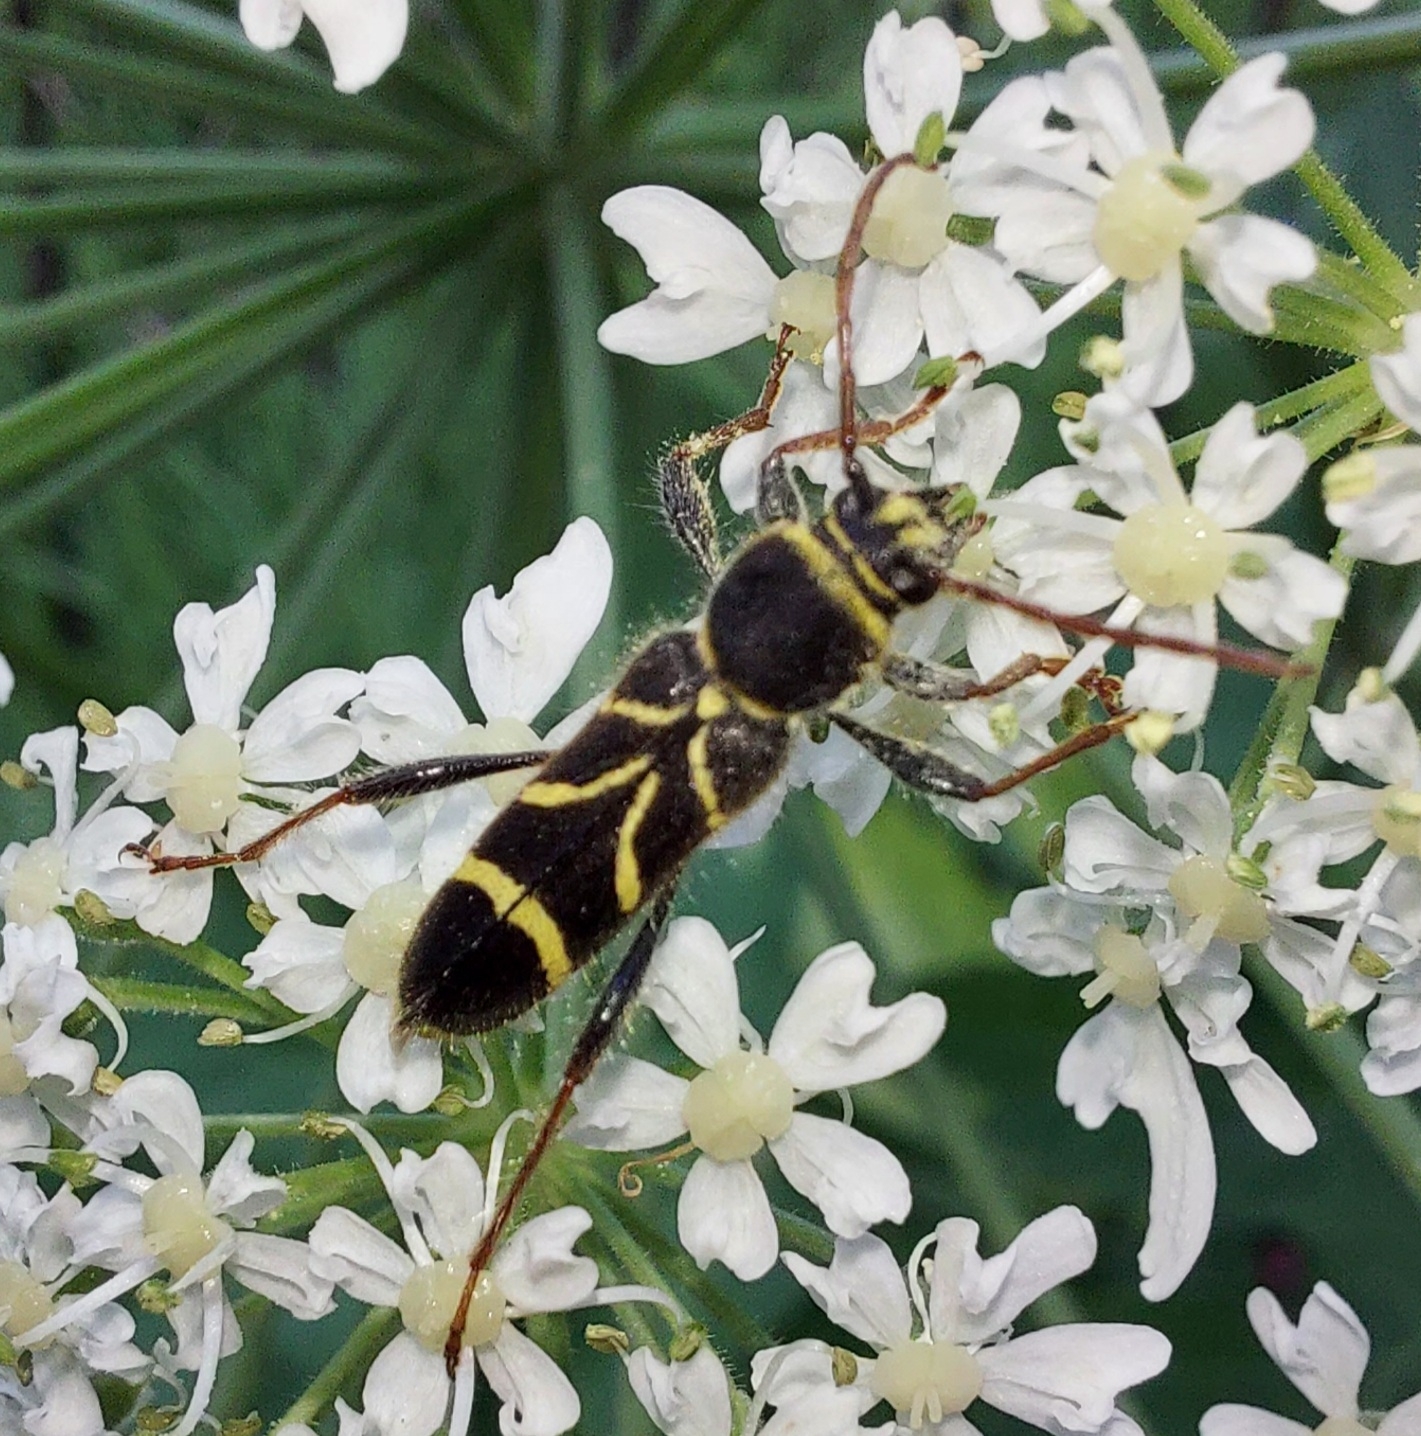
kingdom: Animalia
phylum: Arthropoda
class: Insecta
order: Coleoptera
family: Cerambycidae
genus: Cyrtoclytus
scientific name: Cyrtoclytus capra
